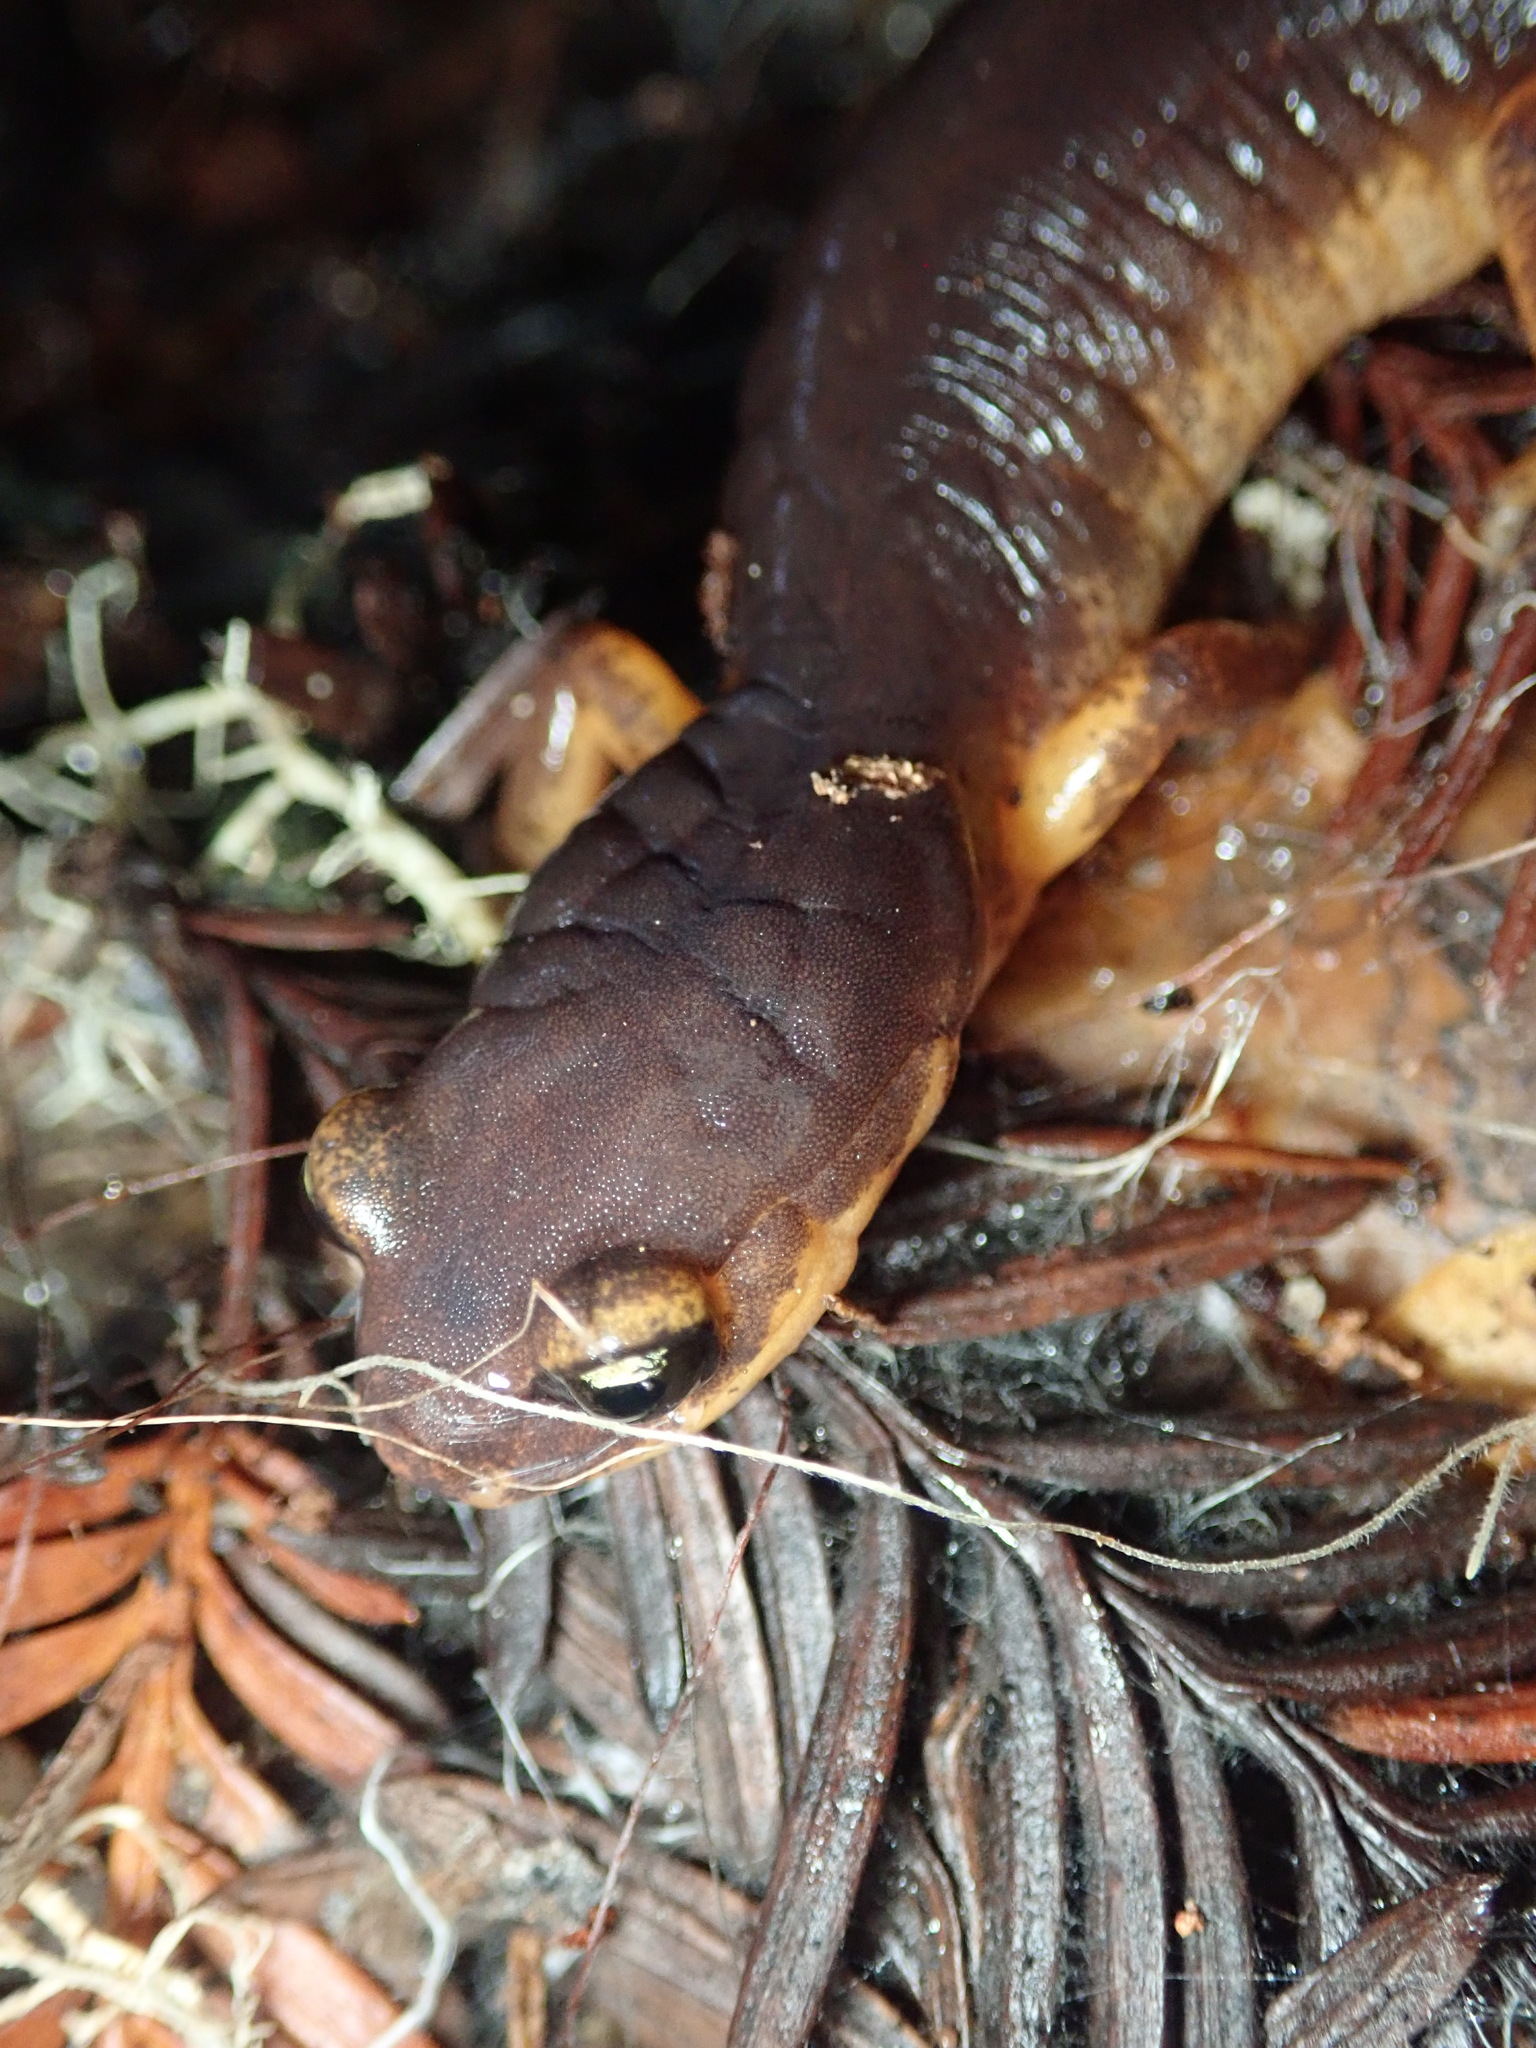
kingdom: Animalia
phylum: Chordata
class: Amphibia
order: Caudata
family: Plethodontidae
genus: Ensatina
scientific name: Ensatina eschscholtzii
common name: Ensatina
